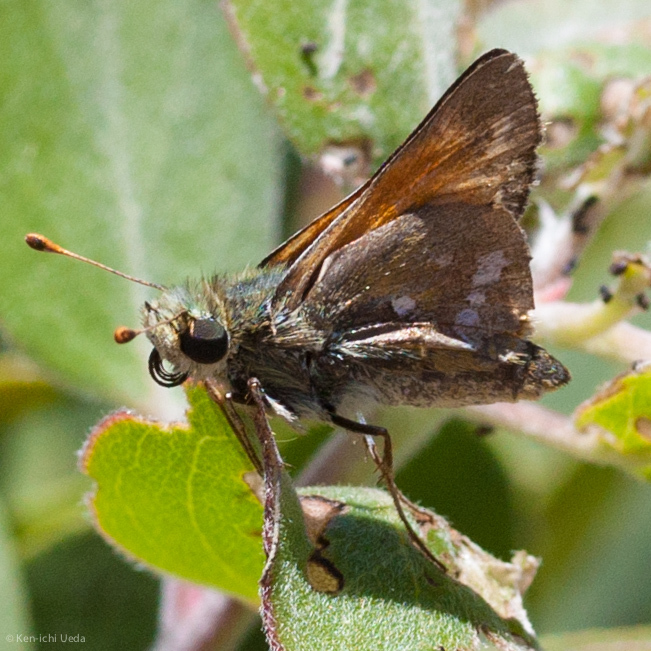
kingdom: Animalia
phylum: Arthropoda
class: Insecta
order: Lepidoptera
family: Hesperiidae
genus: Hesperia
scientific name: Hesperia columbia
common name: Columbian skipper
